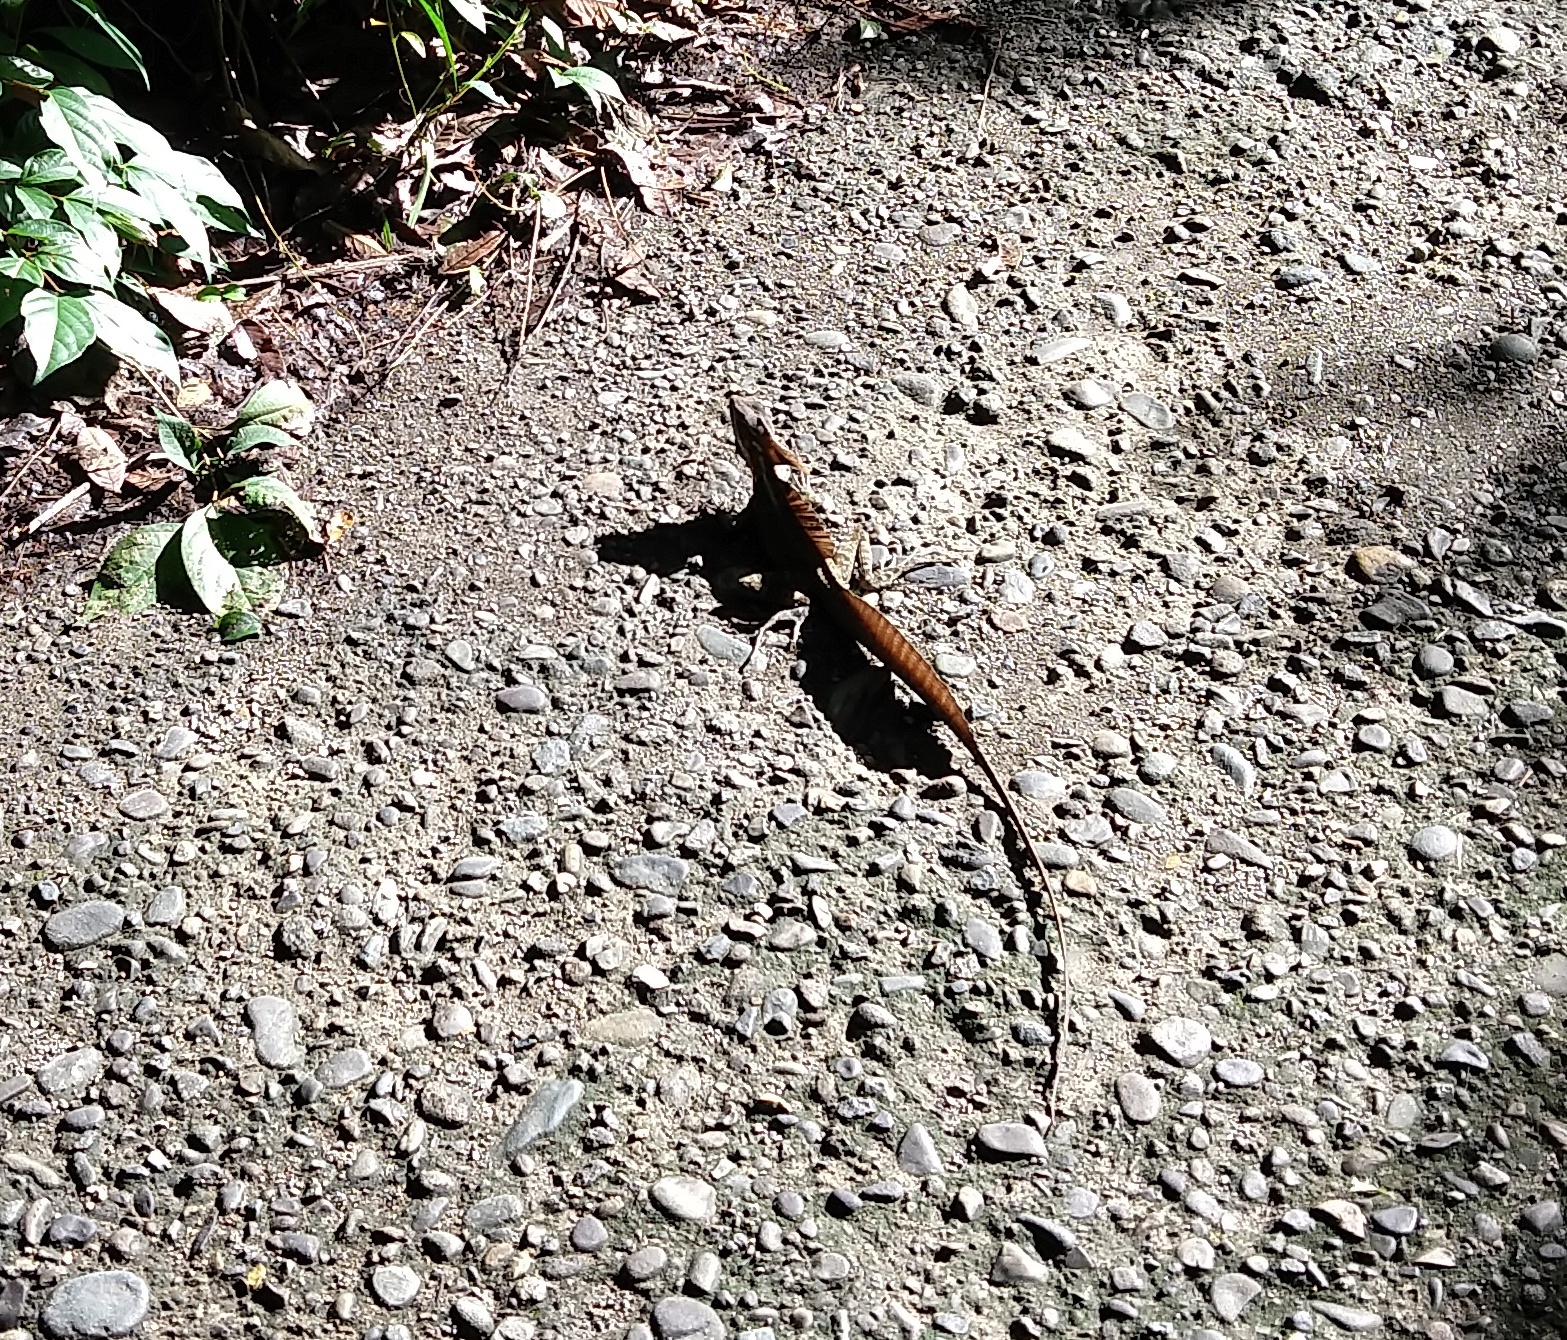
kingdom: Animalia
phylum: Chordata
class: Squamata
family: Corytophanidae
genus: Basiliscus
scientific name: Basiliscus basiliscus
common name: Common basilisk
